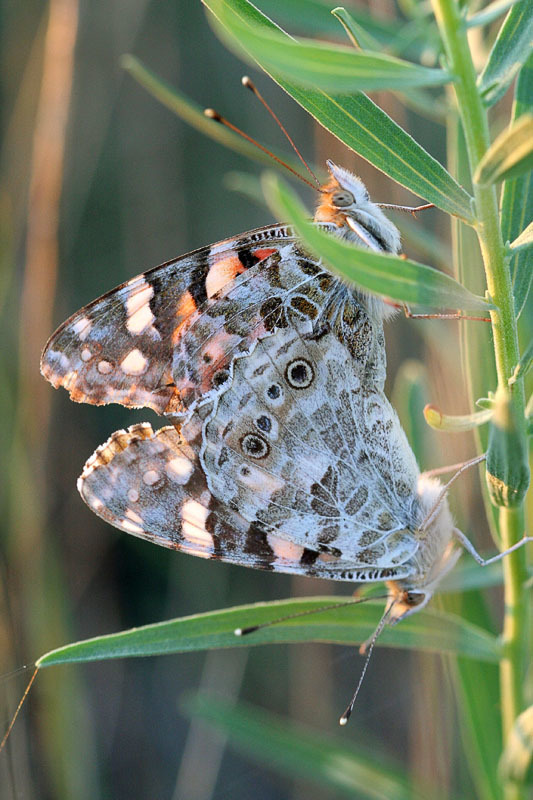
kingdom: Animalia
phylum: Arthropoda
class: Insecta
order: Lepidoptera
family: Nymphalidae
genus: Vanessa
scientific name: Vanessa cardui
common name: Painted lady
